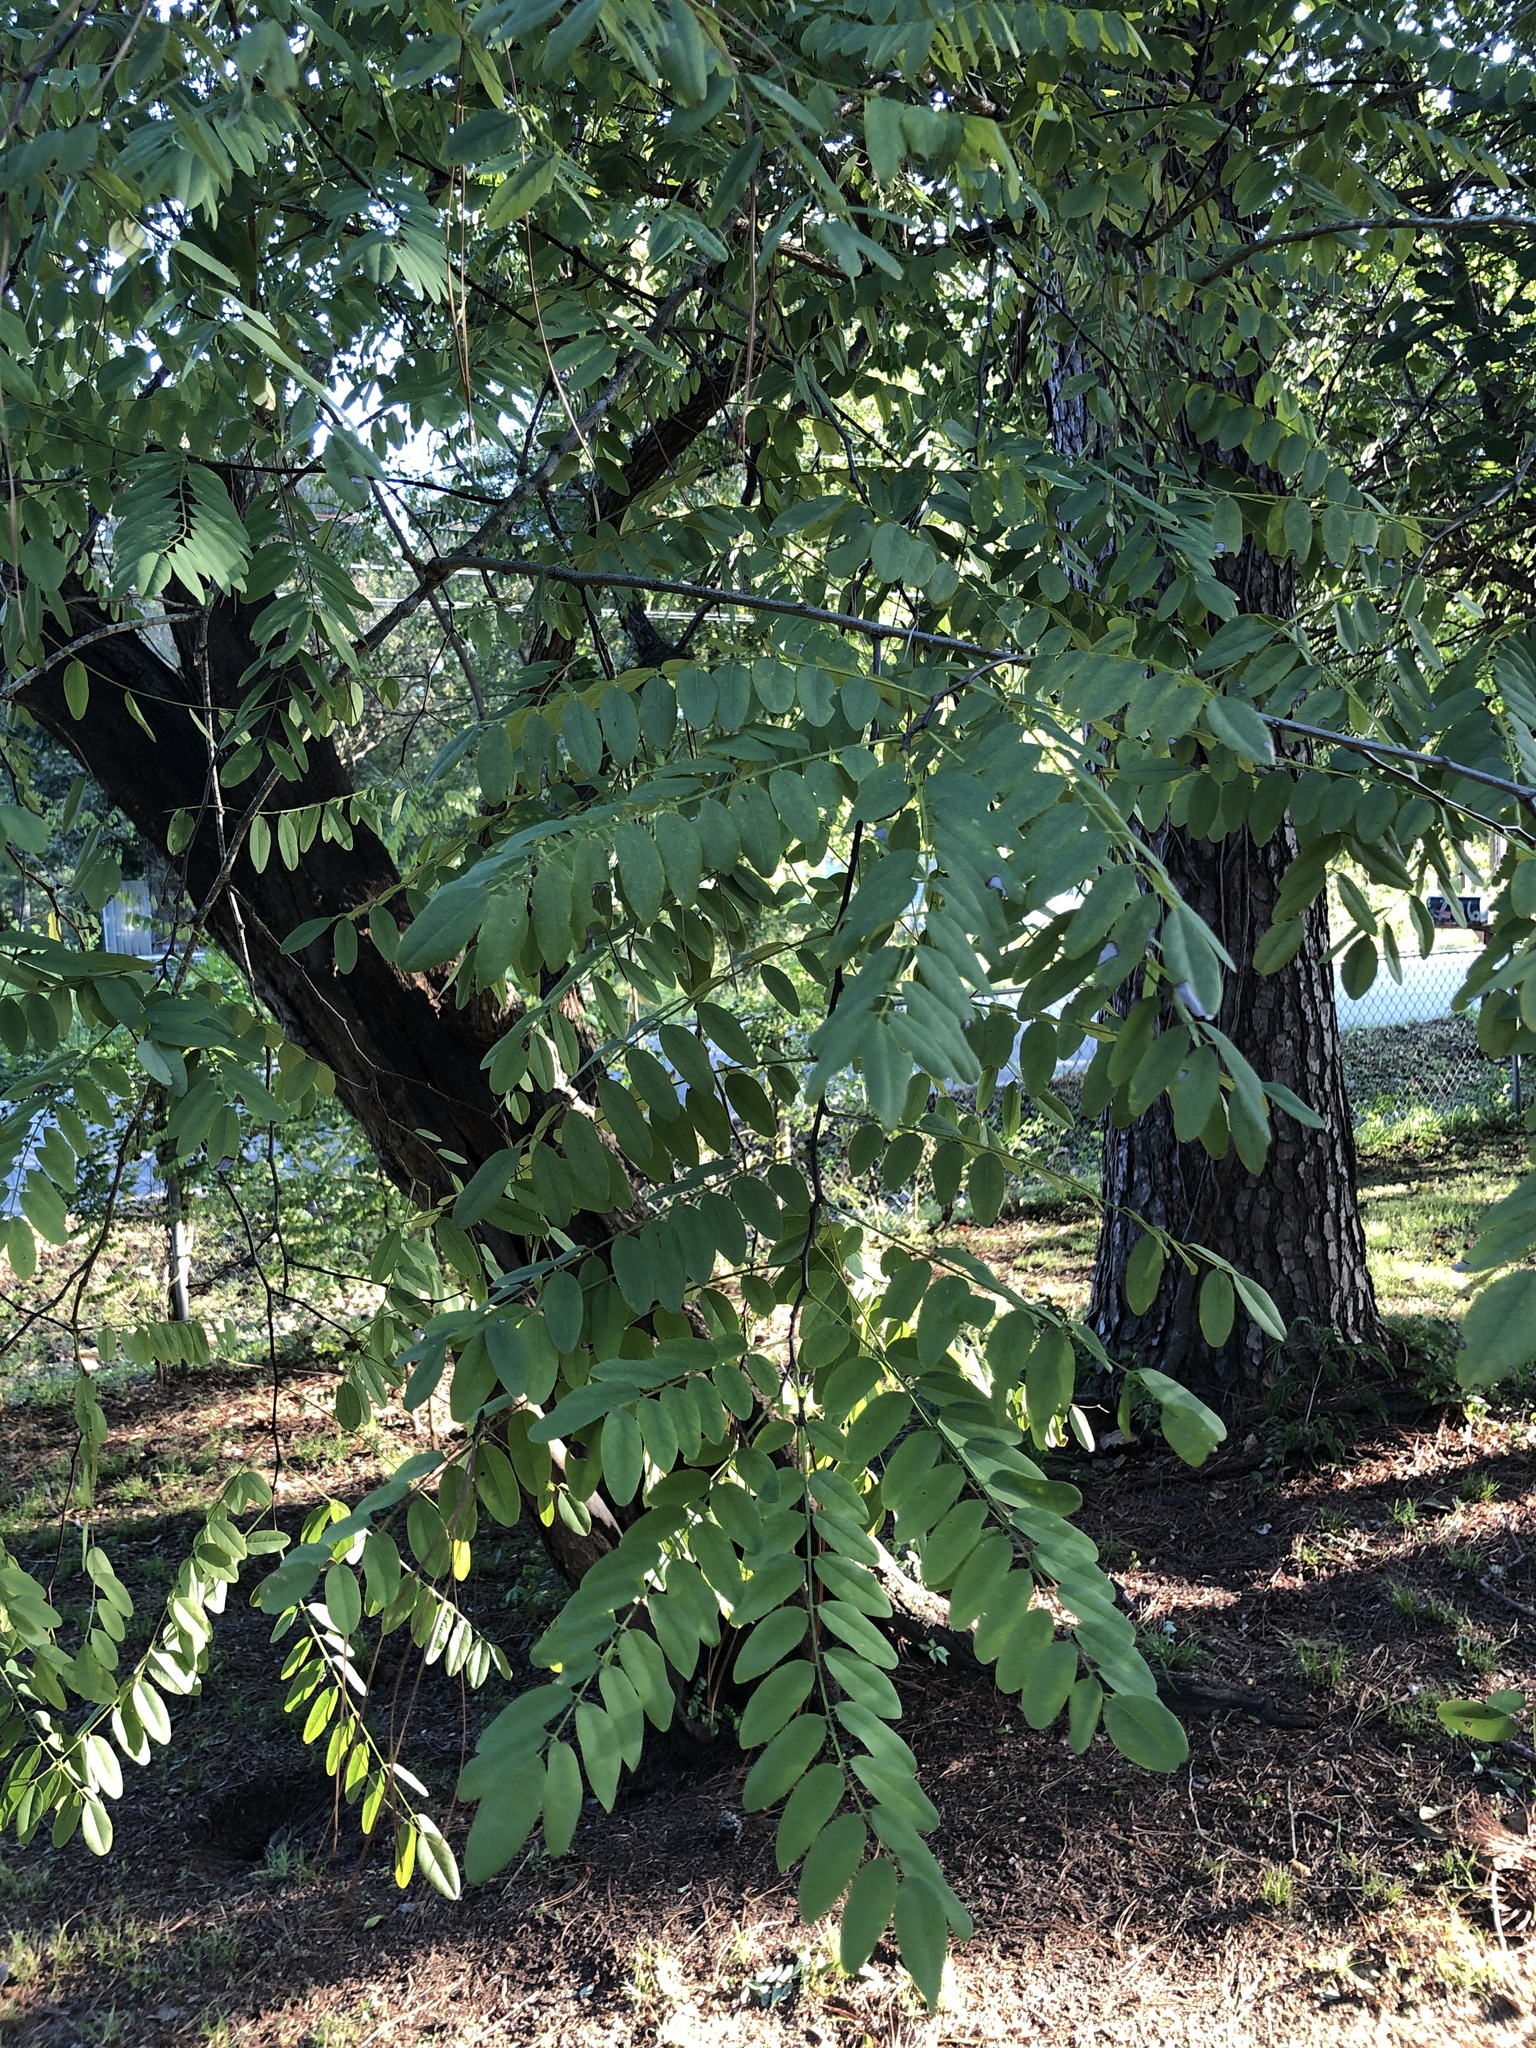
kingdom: Plantae
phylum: Tracheophyta
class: Magnoliopsida
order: Fabales
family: Fabaceae
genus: Robinia
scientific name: Robinia pseudoacacia
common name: Black locust
